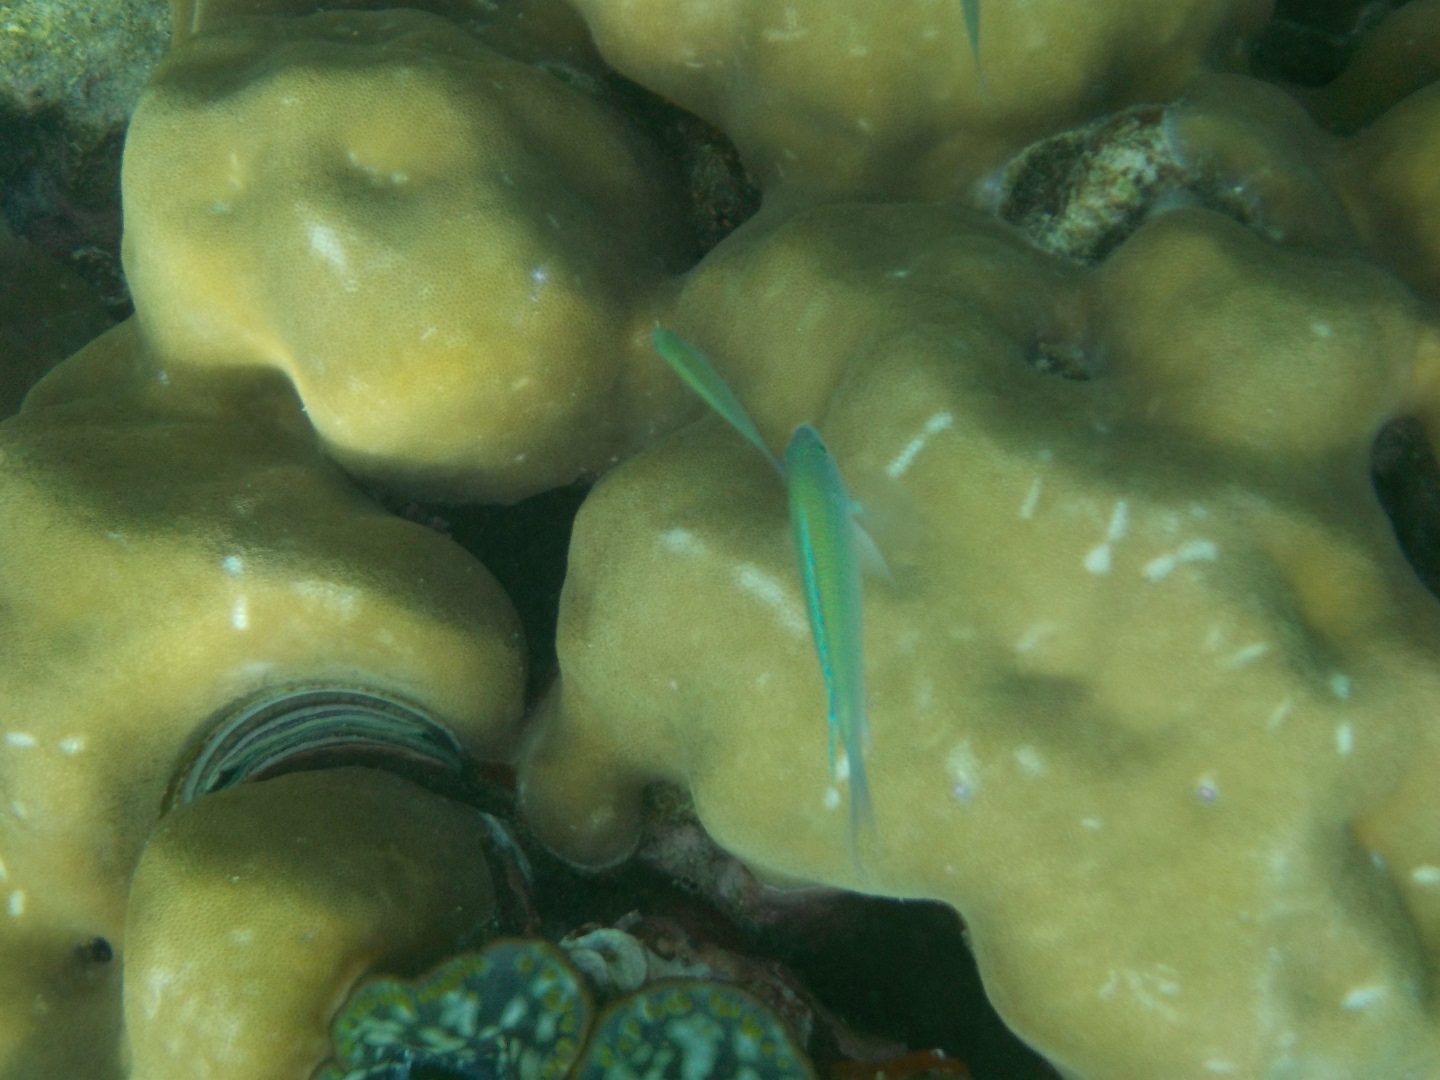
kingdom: Animalia
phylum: Chordata
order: Perciformes
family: Pomacentridae
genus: Chromis
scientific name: Chromis viridis
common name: Blue-green chromis
